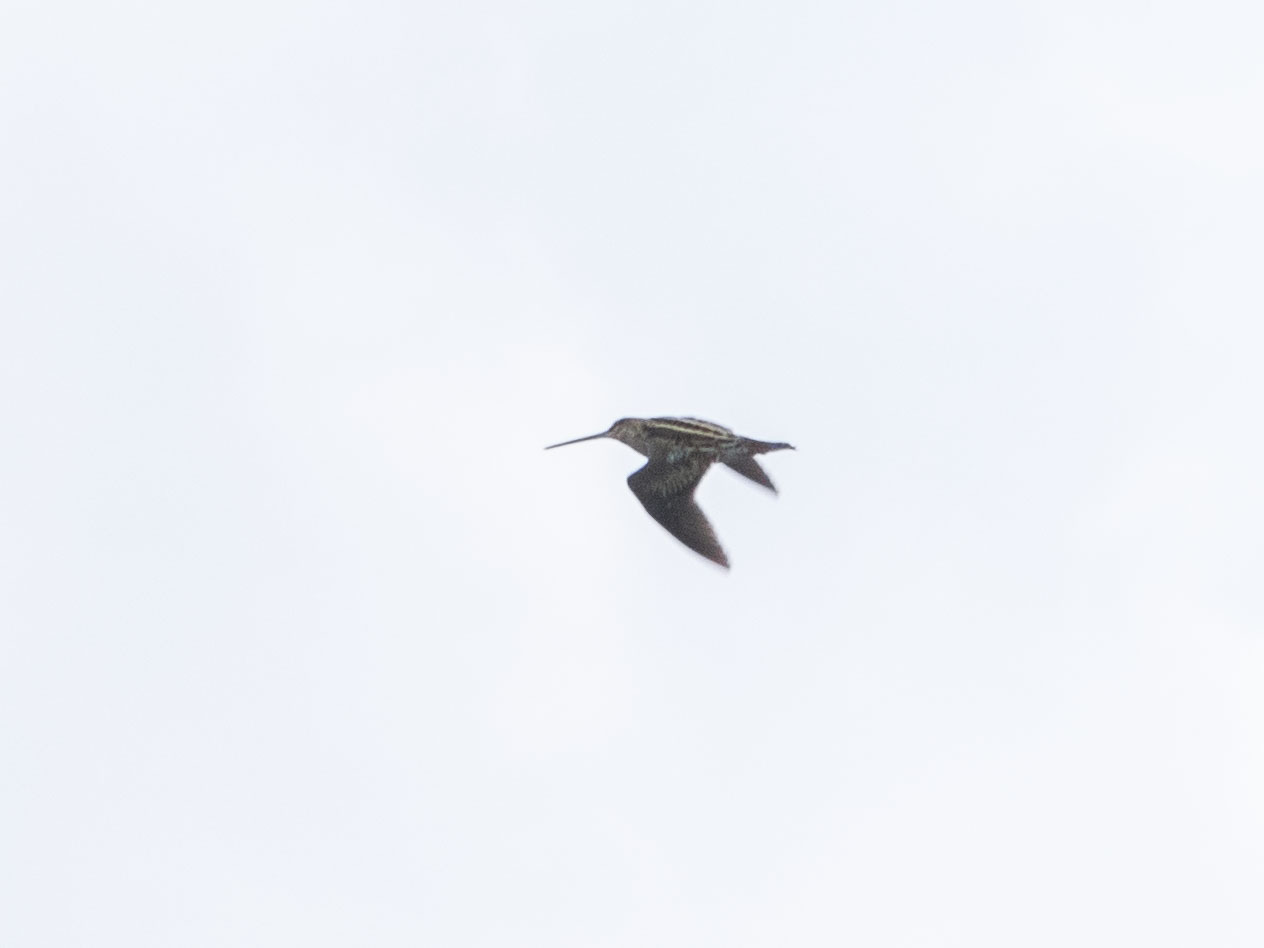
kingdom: Animalia
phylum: Chordata
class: Aves
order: Charadriiformes
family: Scolopacidae
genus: Gallinago
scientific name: Gallinago gallinago
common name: Common snipe
